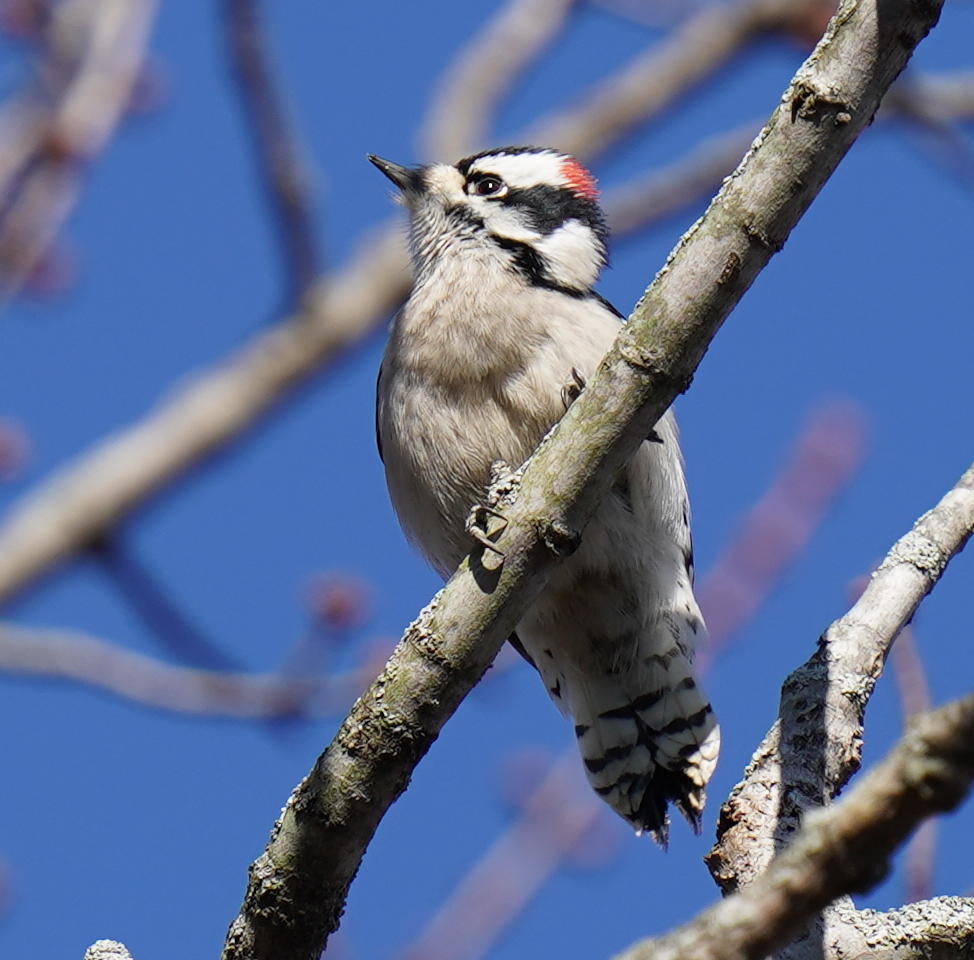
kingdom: Animalia
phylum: Chordata
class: Aves
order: Piciformes
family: Picidae
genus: Dryobates
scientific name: Dryobates pubescens
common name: Downy woodpecker
